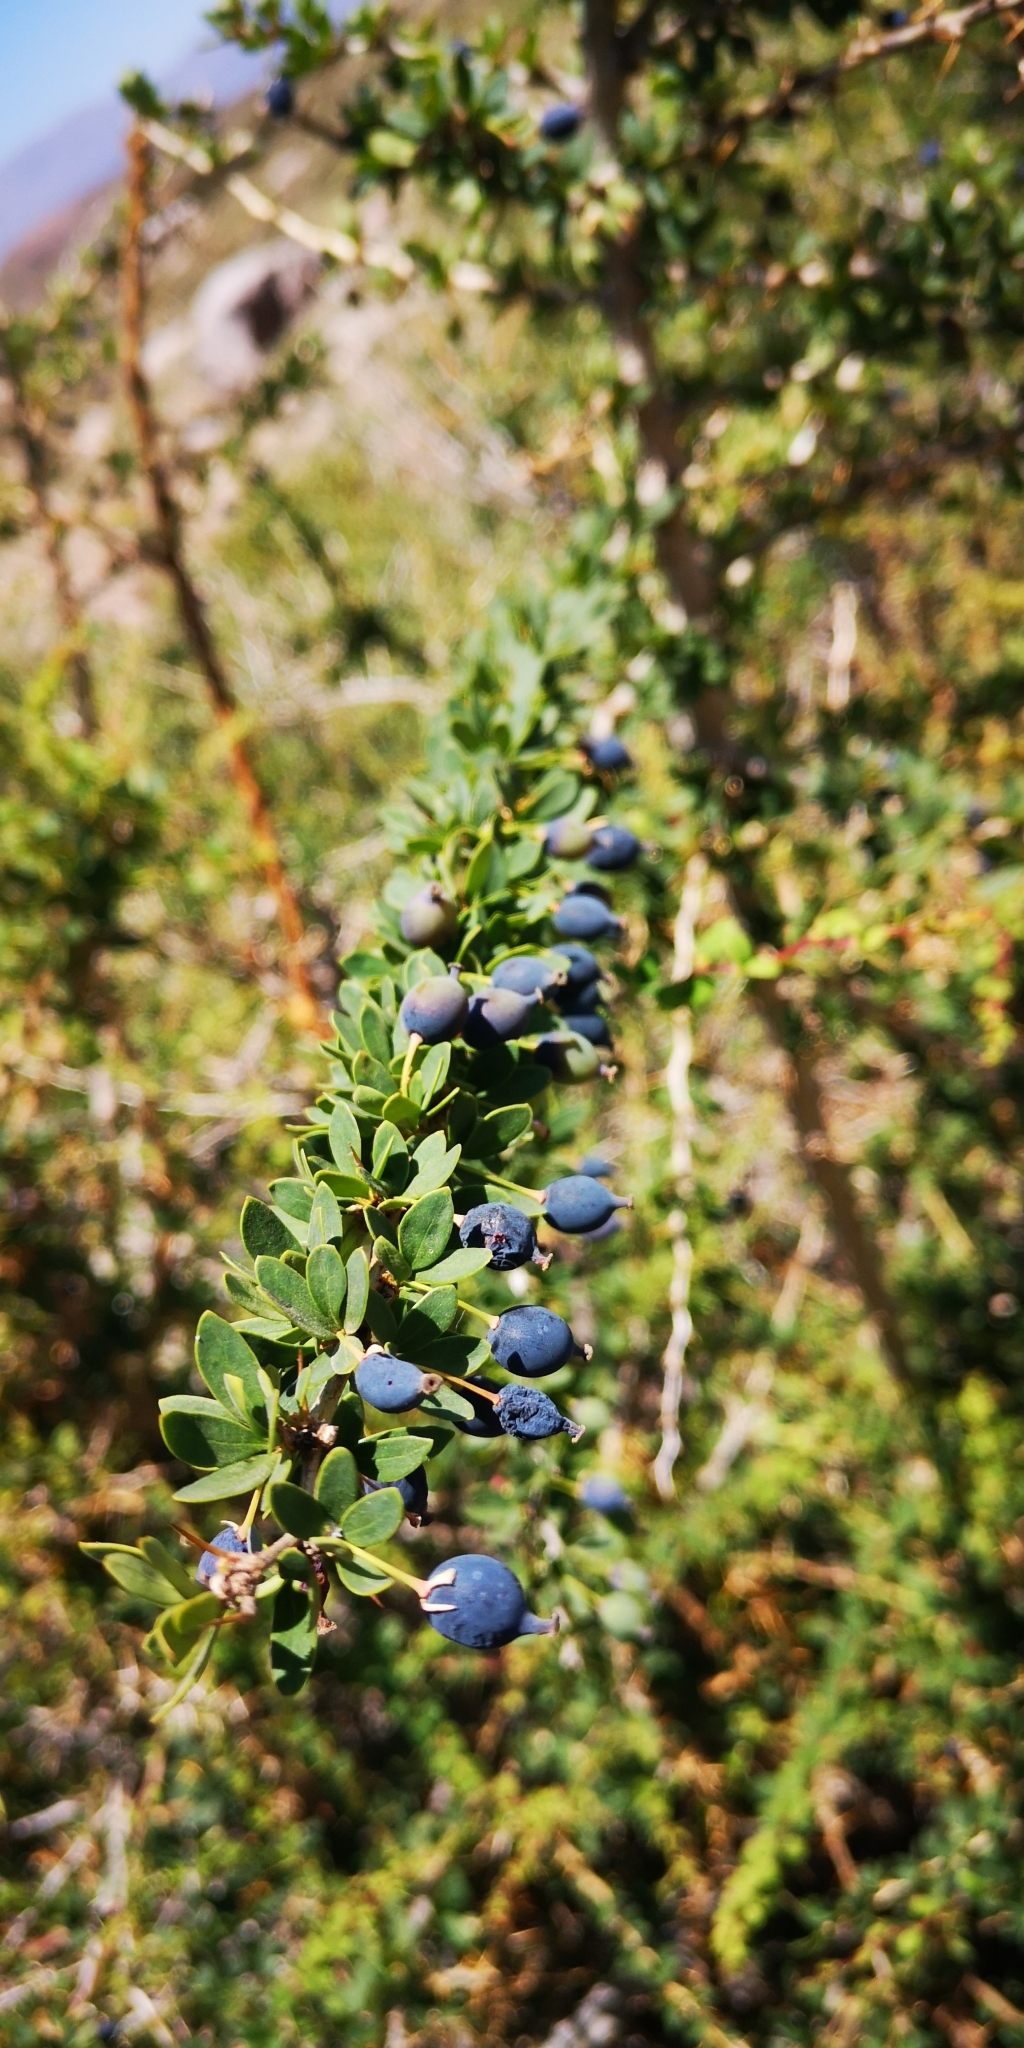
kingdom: Plantae
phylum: Tracheophyta
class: Magnoliopsida
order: Ranunculales
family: Berberidaceae
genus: Berberis
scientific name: Berberis montana
